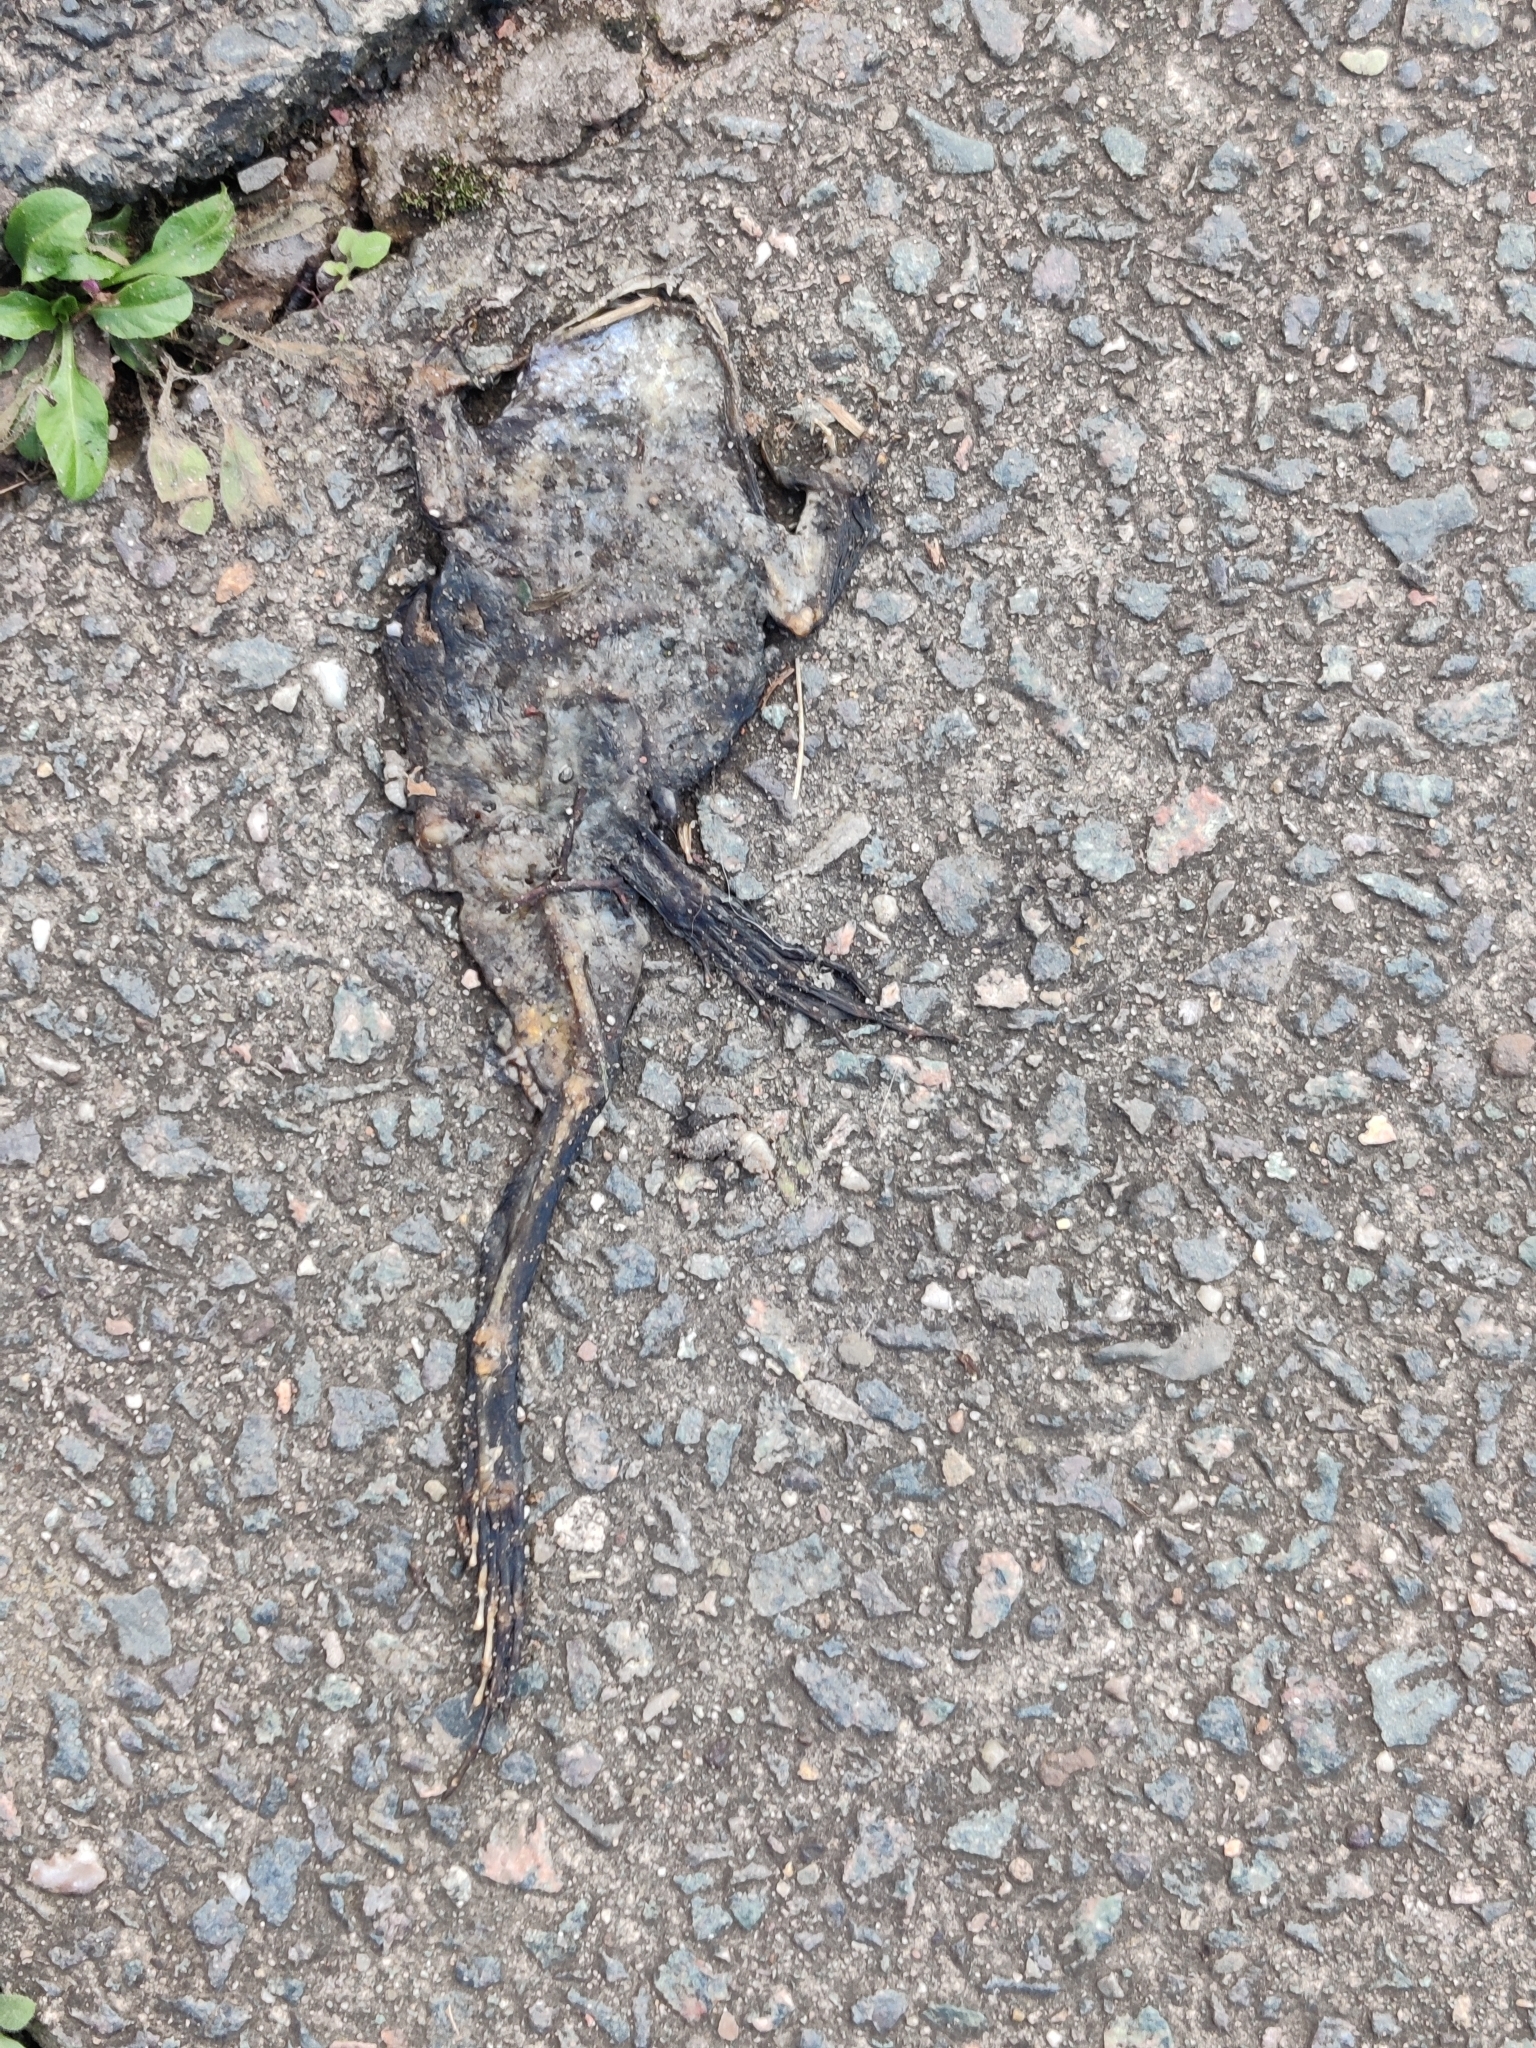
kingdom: Animalia
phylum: Chordata
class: Amphibia
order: Anura
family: Bufonidae
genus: Bufo
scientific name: Bufo bufo
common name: Common toad
